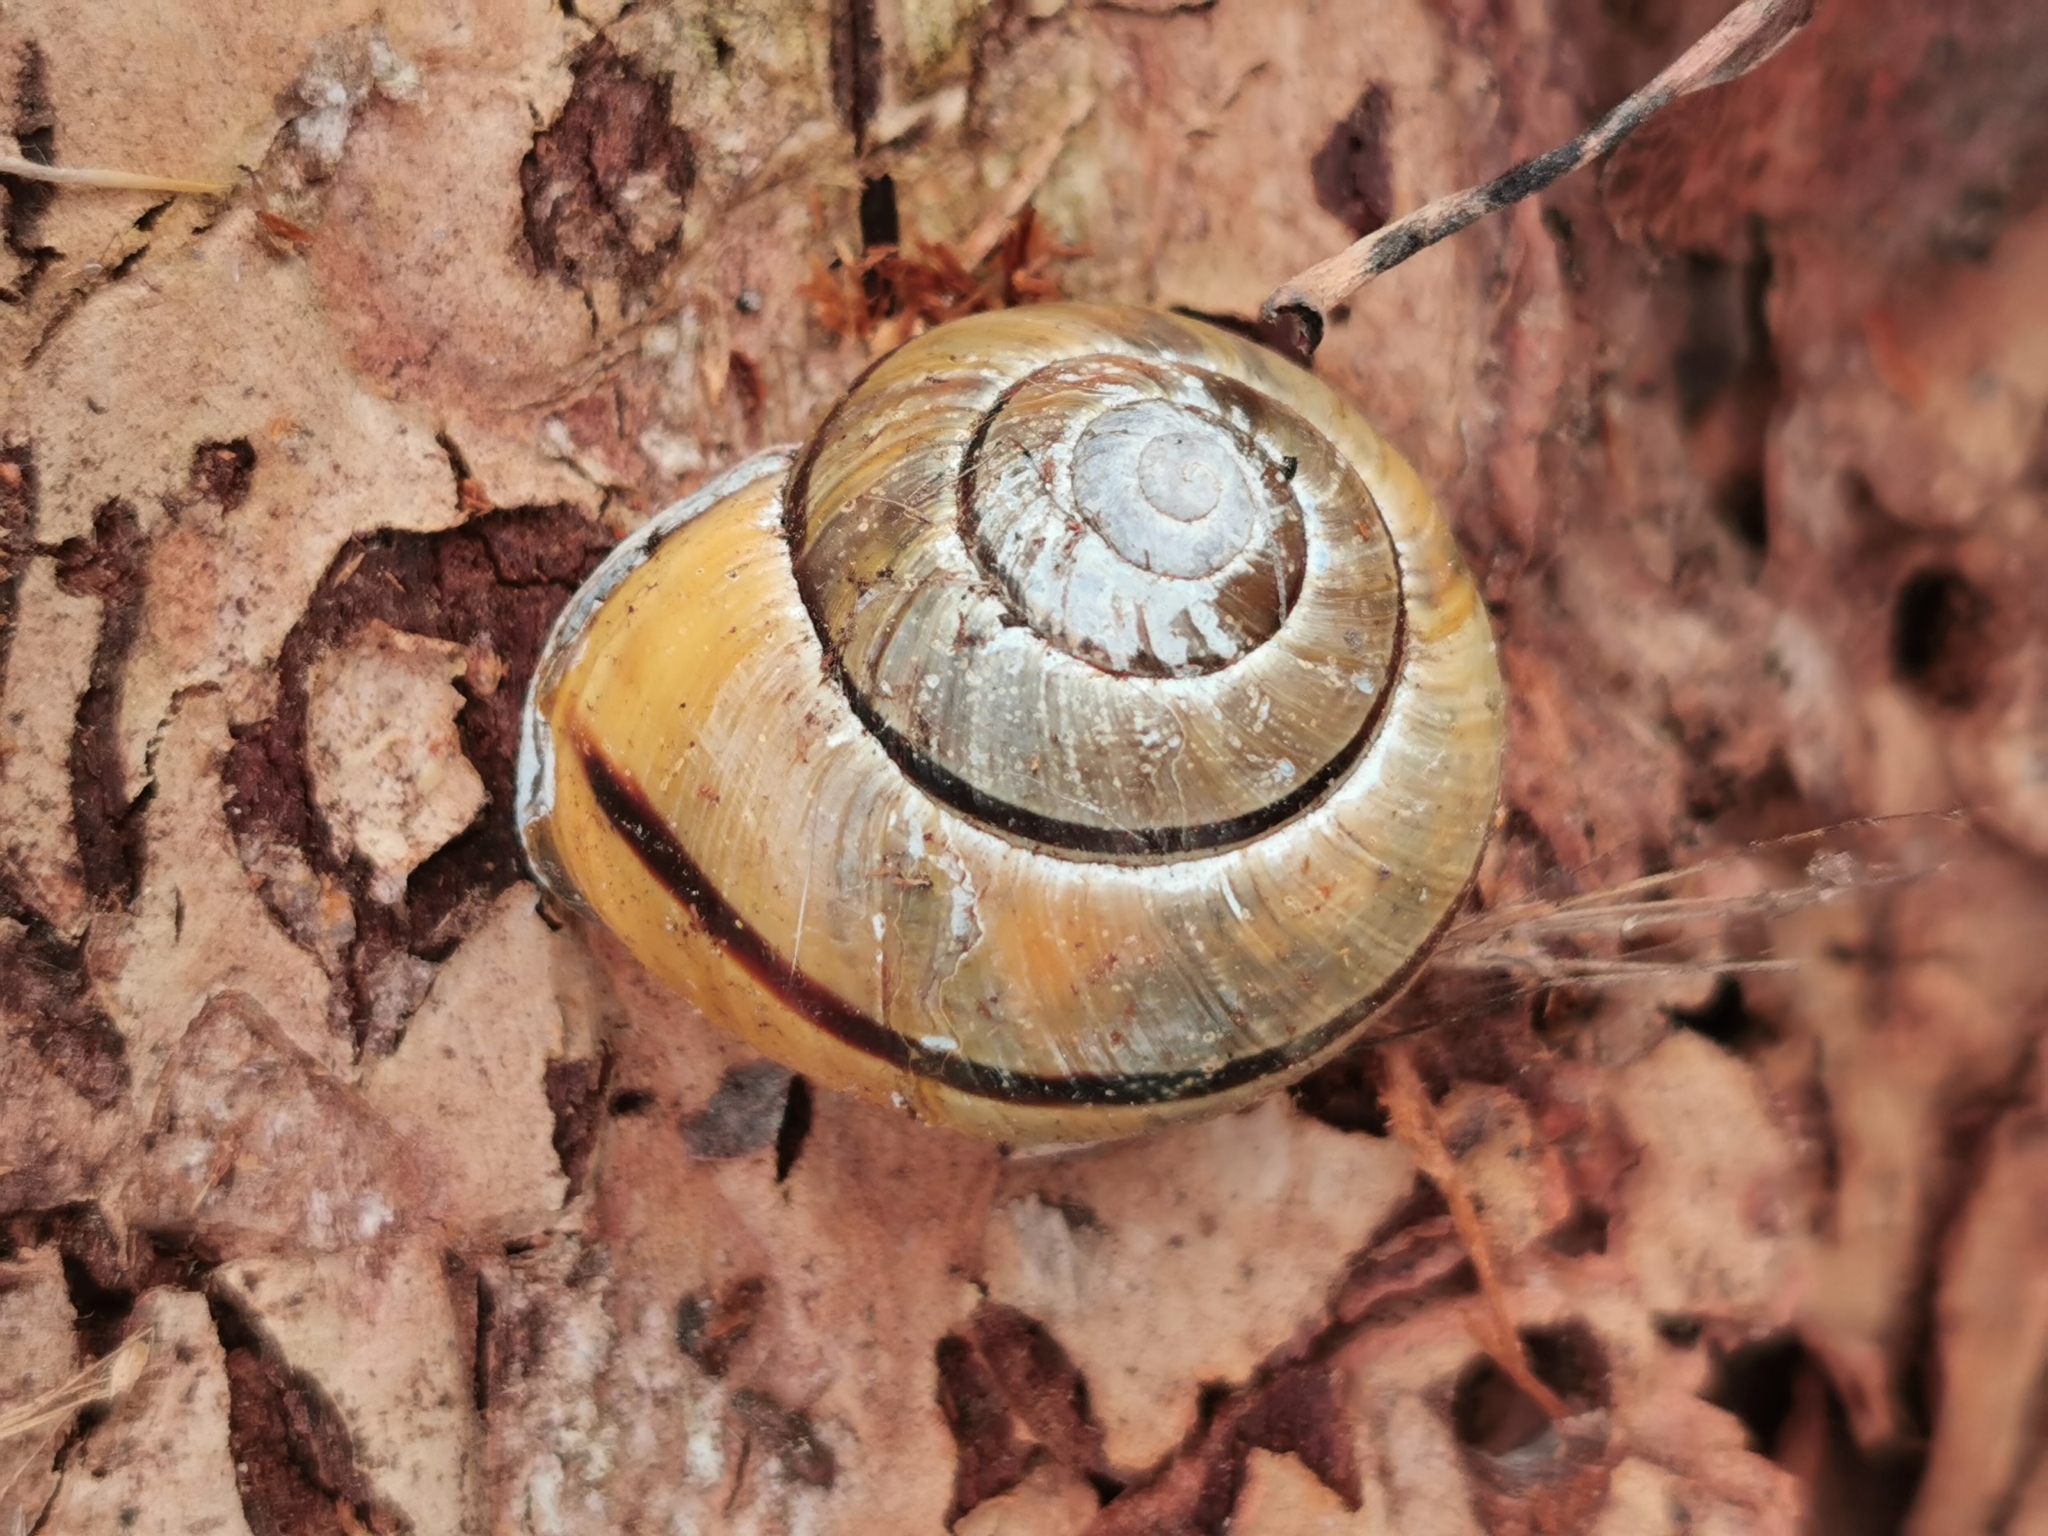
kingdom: Animalia
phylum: Mollusca
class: Gastropoda
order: Stylommatophora
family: Helicidae
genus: Cepaea
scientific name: Cepaea nemoralis
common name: Grovesnail
